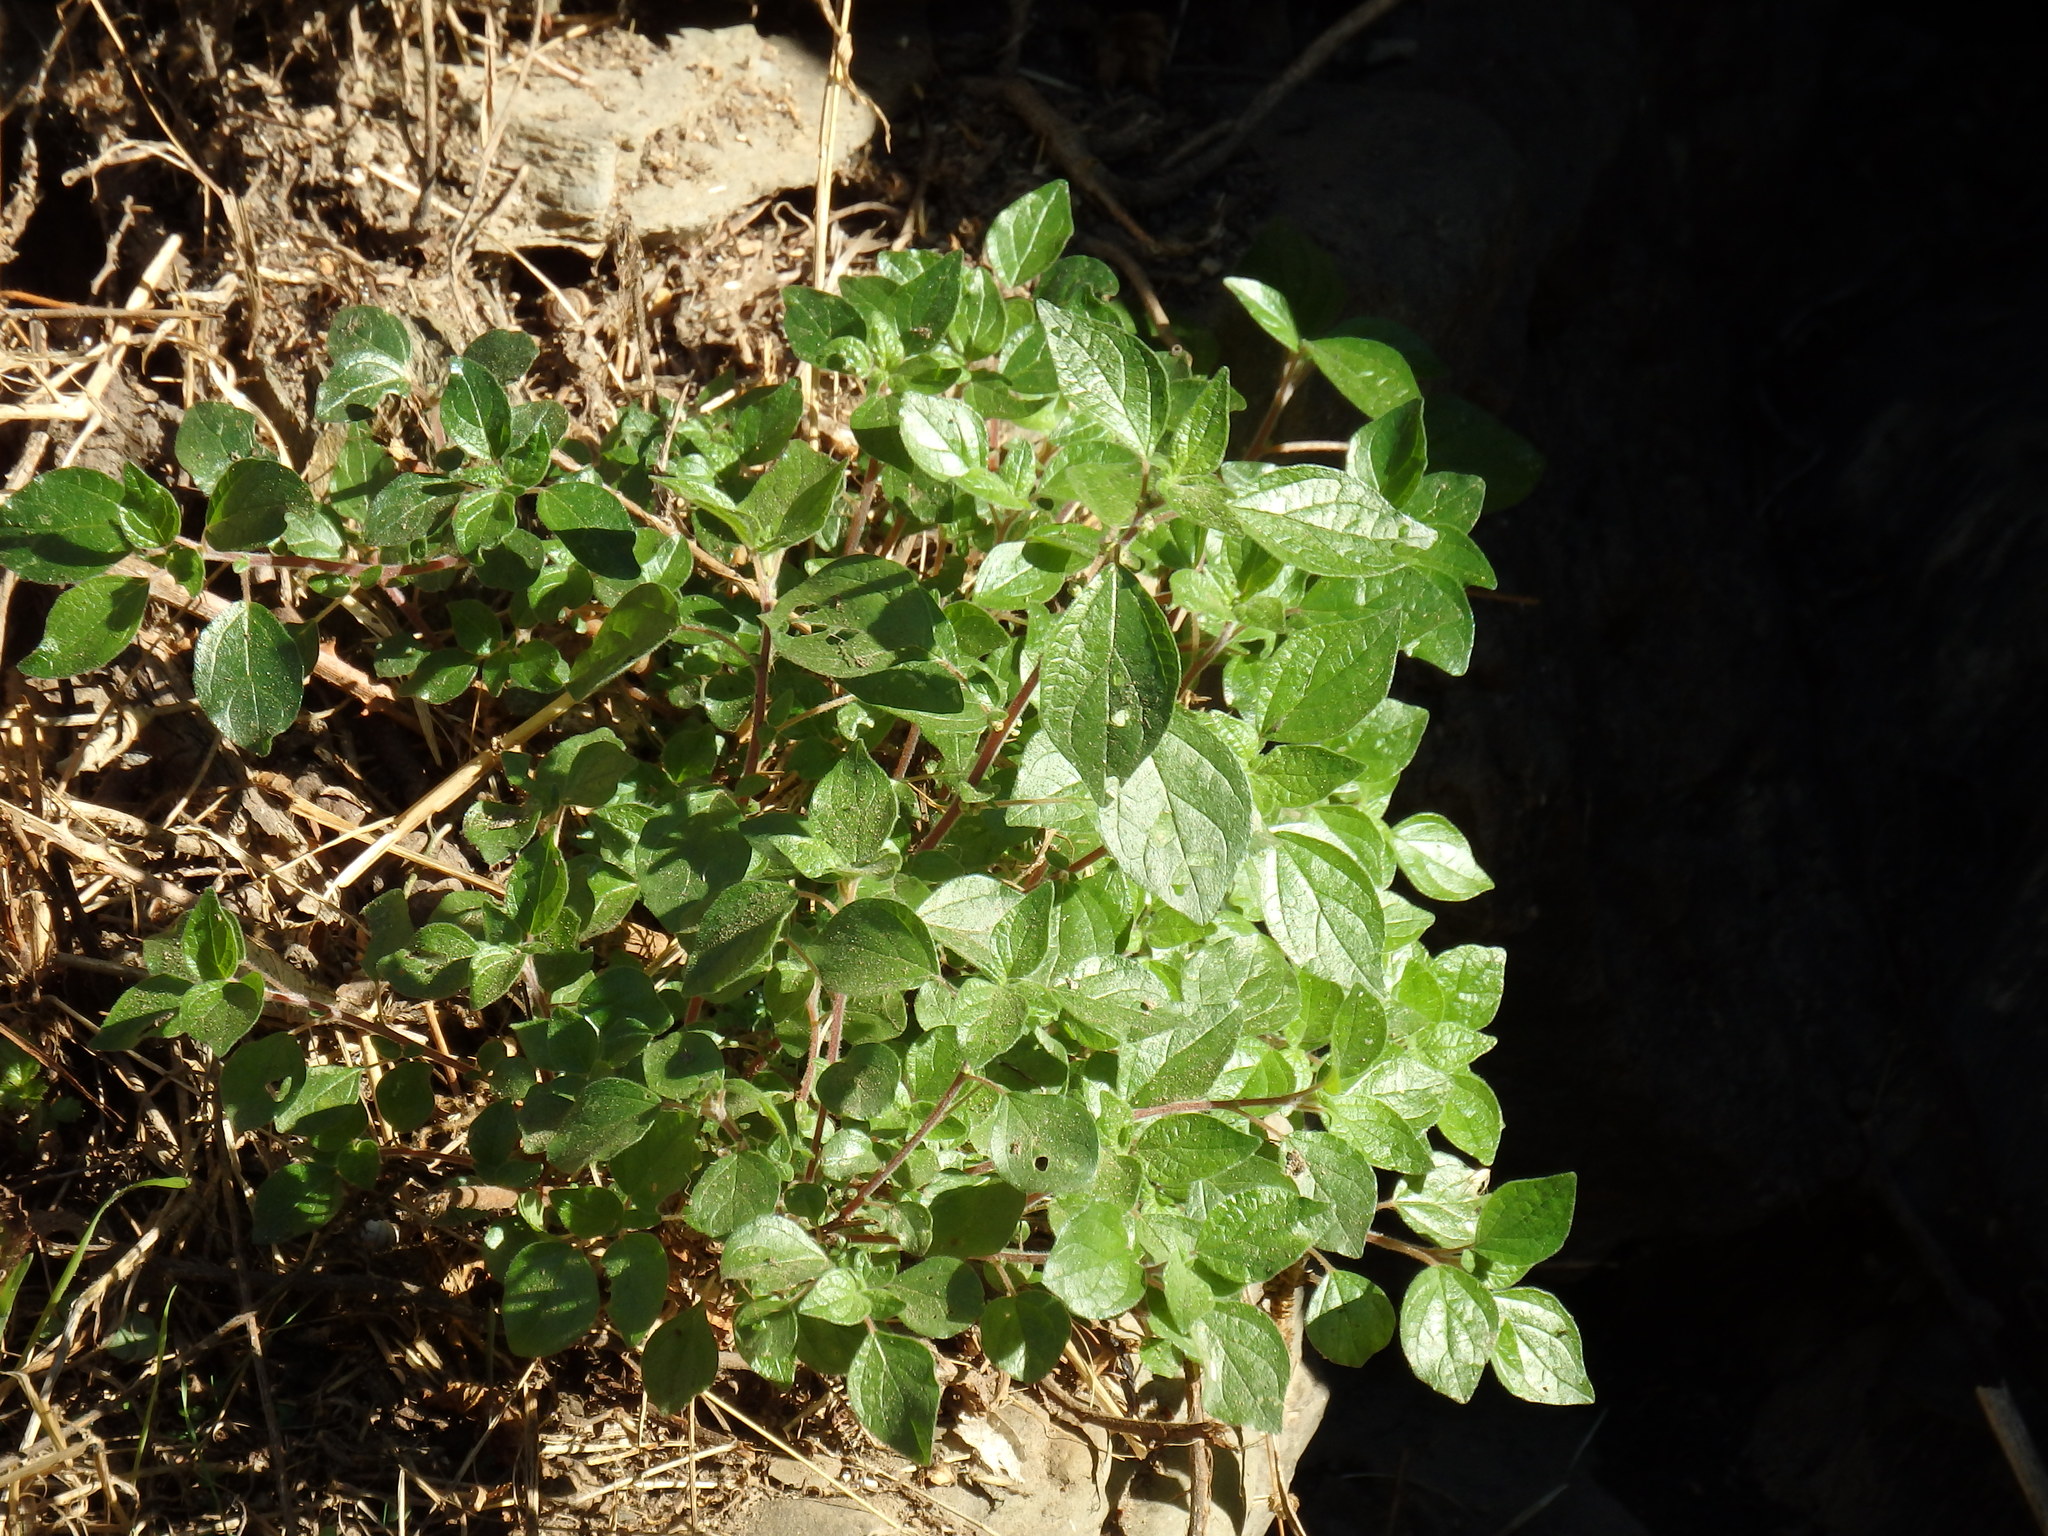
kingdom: Plantae
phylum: Tracheophyta
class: Magnoliopsida
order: Rosales
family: Urticaceae
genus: Parietaria
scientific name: Parietaria judaica
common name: Pellitory-of-the-wall
